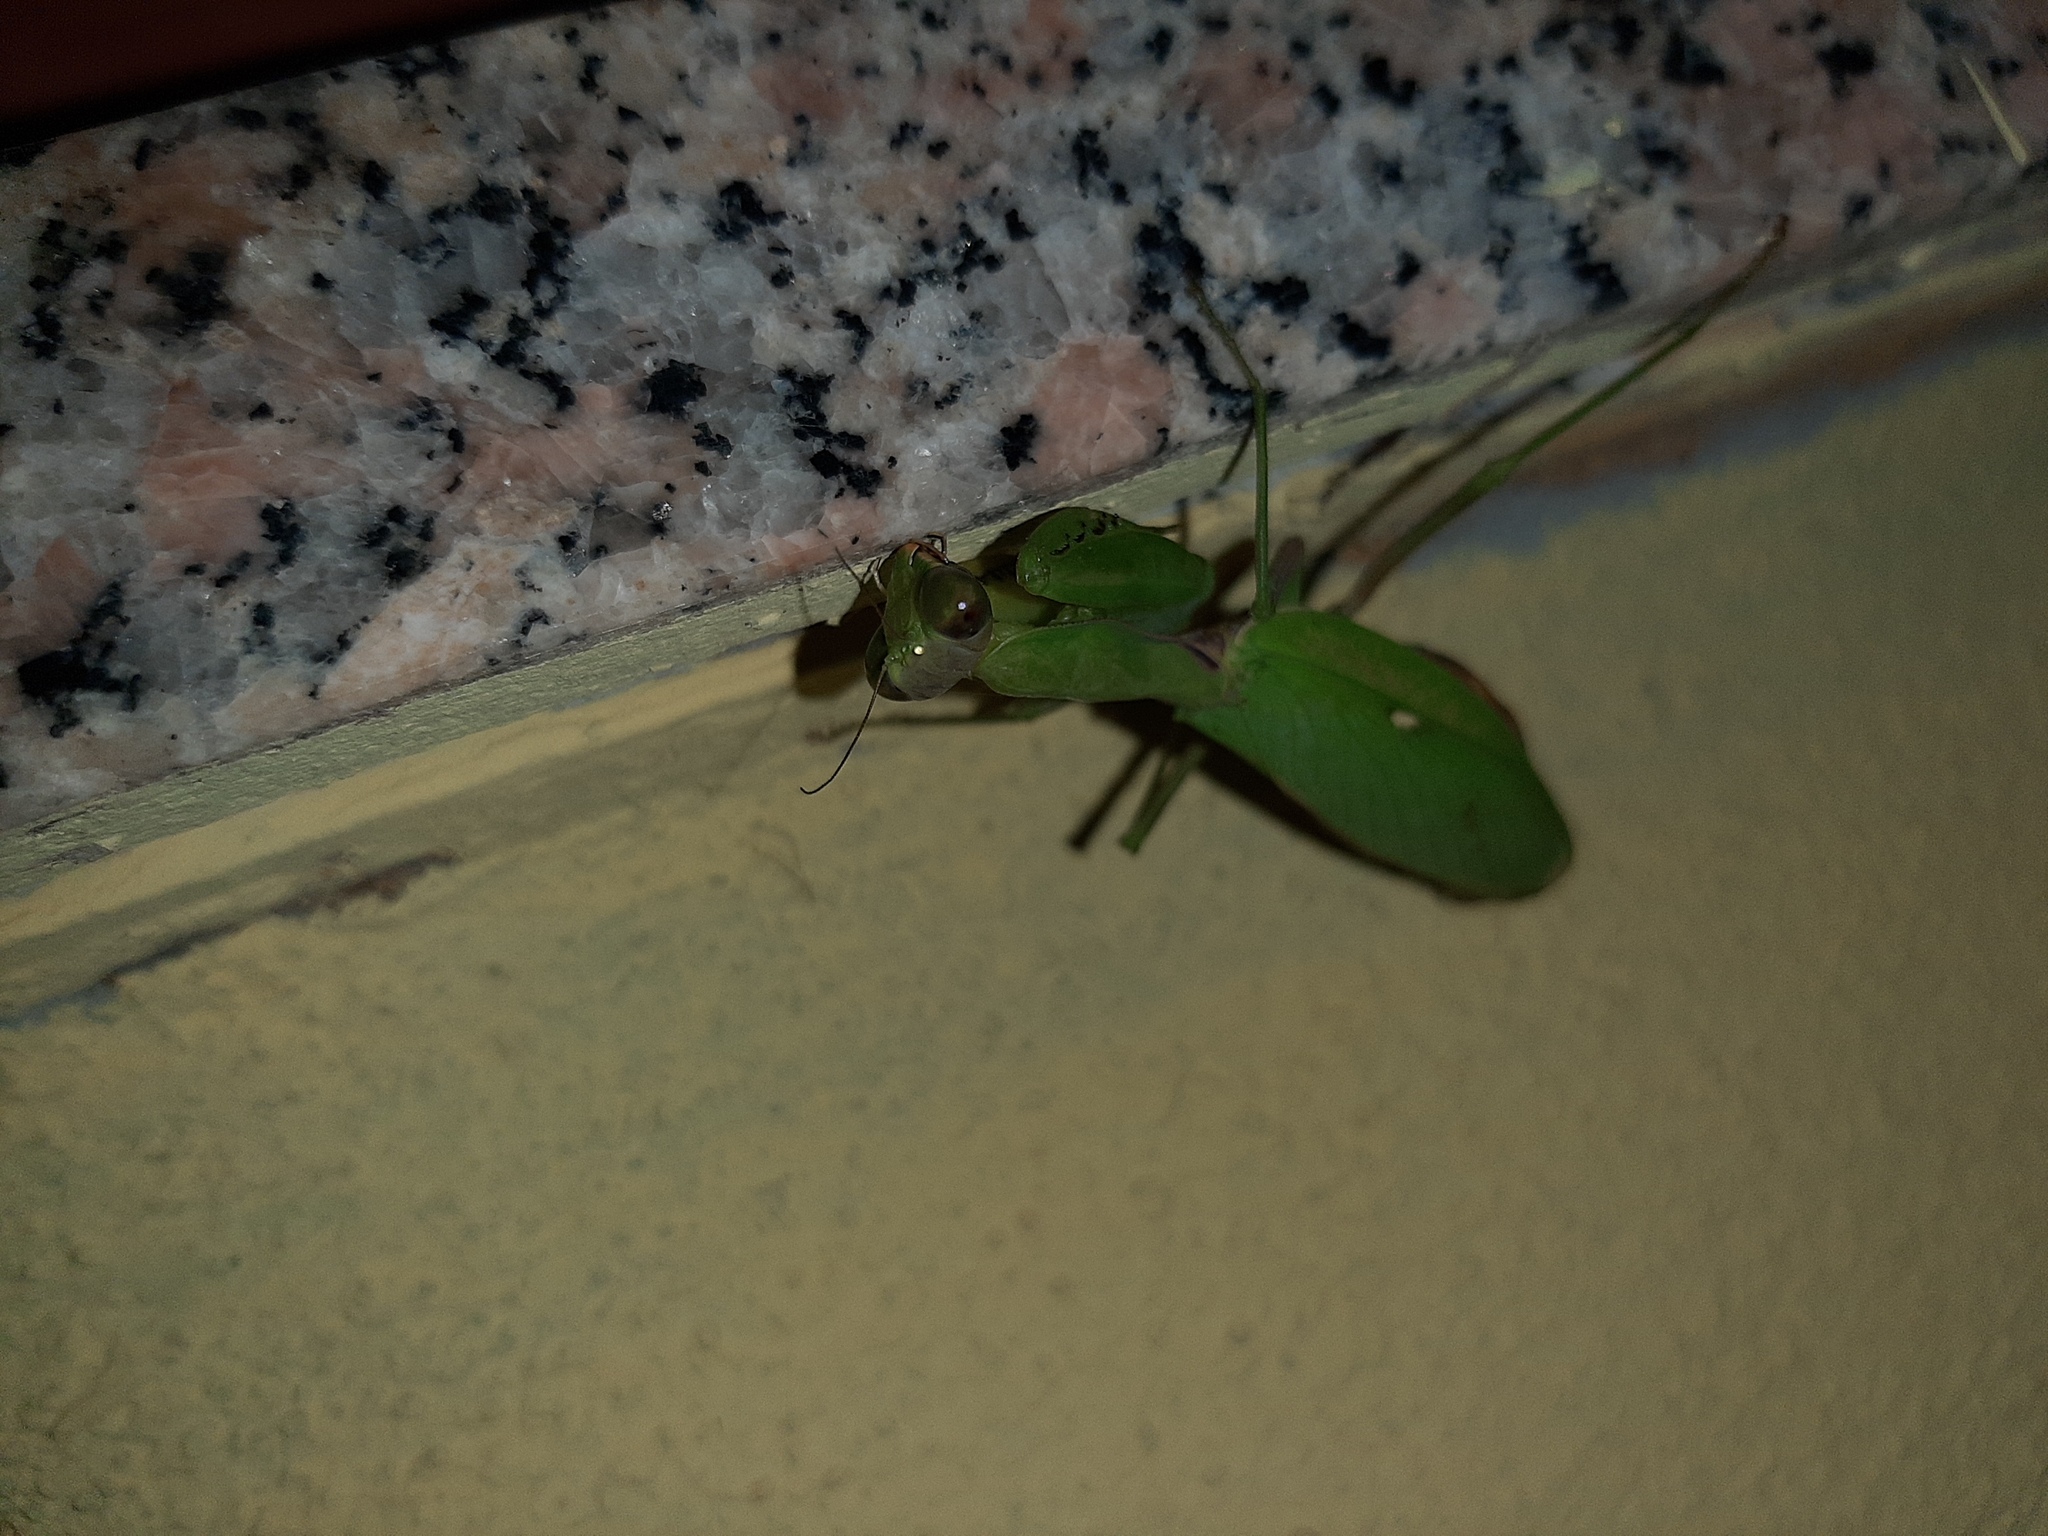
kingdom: Animalia
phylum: Arthropoda
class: Insecta
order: Mantodea
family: Mantidae
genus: Hierodula
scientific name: Hierodula patellifera
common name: Asian mantis
